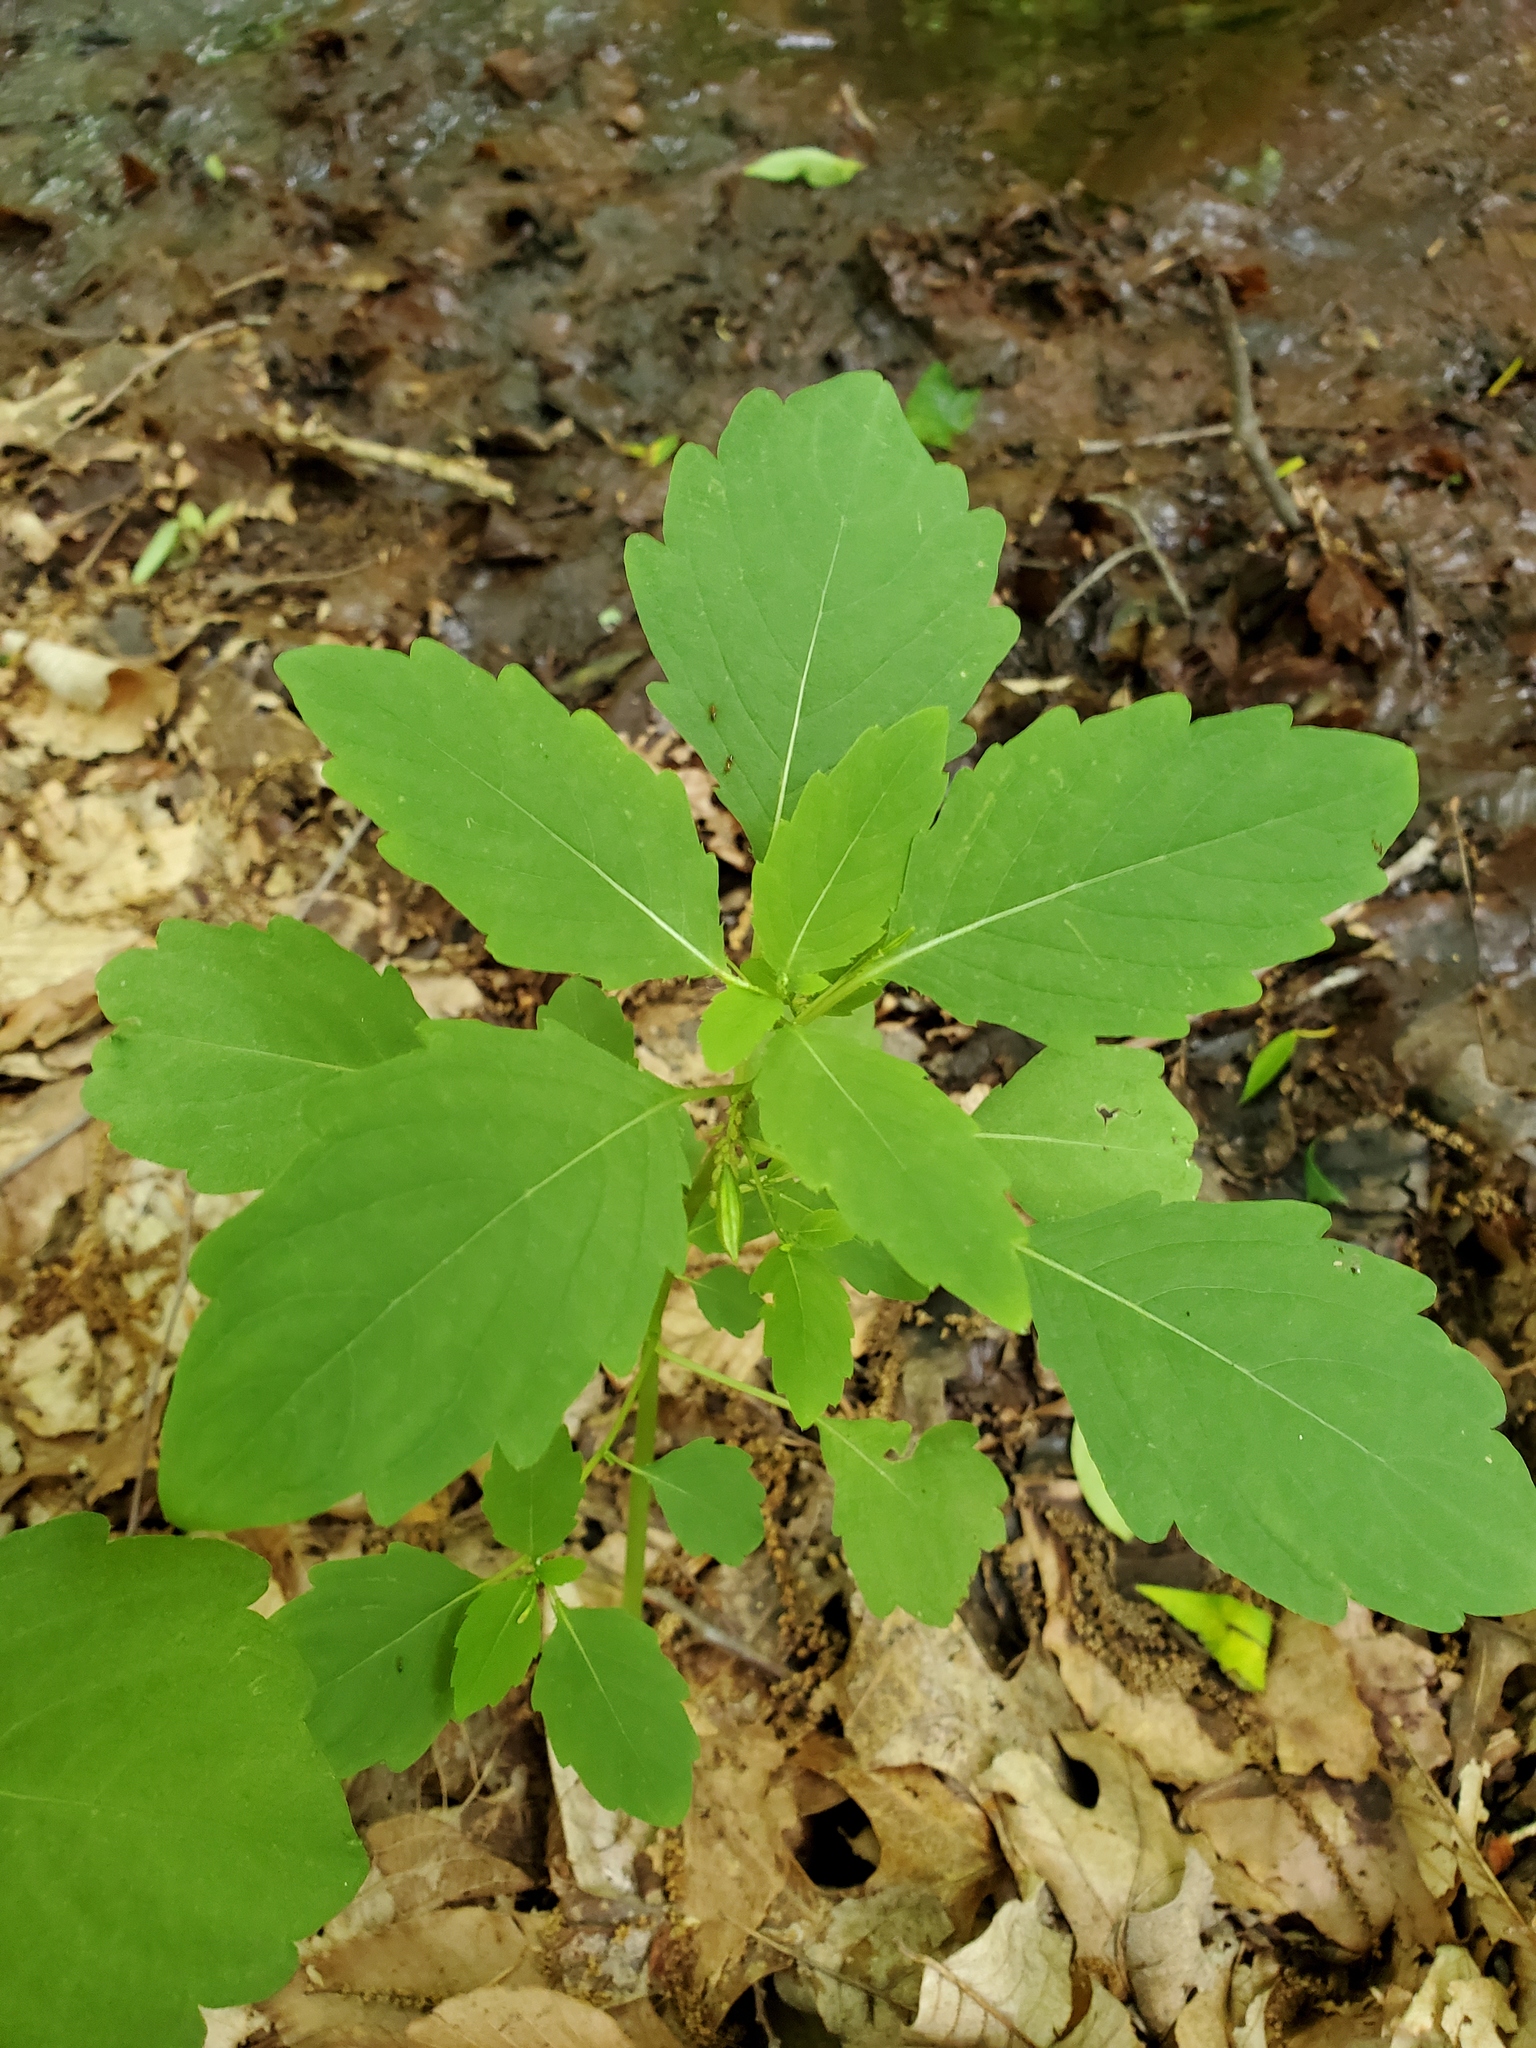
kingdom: Plantae
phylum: Tracheophyta
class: Magnoliopsida
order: Ericales
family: Balsaminaceae
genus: Impatiens
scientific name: Impatiens capensis
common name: Orange balsam
